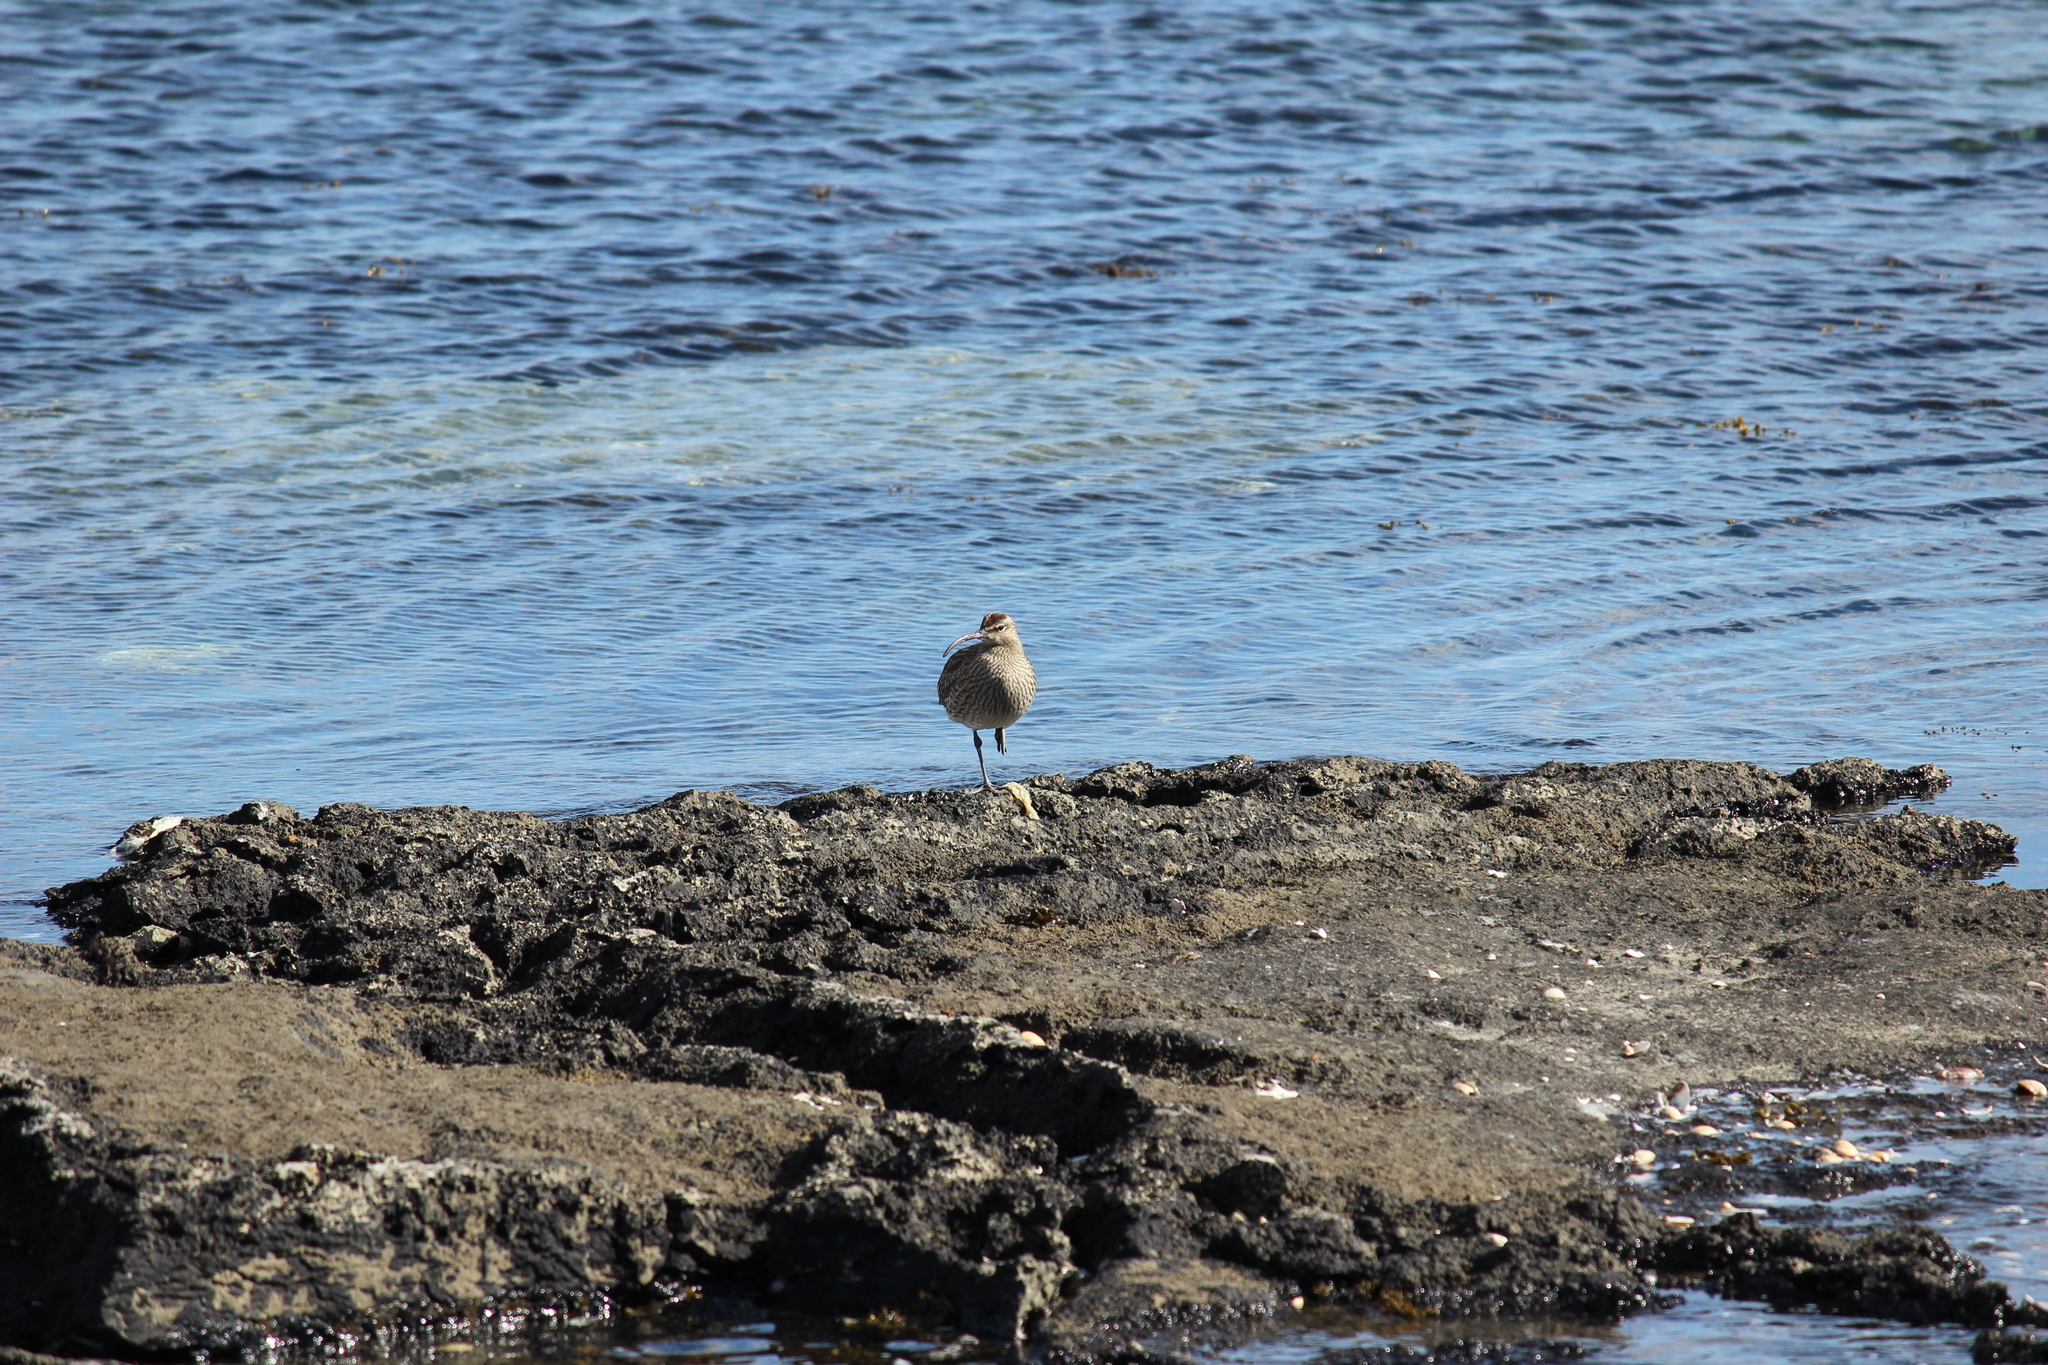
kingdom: Animalia
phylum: Chordata
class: Aves
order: Charadriiformes
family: Scolopacidae
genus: Numenius
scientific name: Numenius phaeopus
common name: Whimbrel
